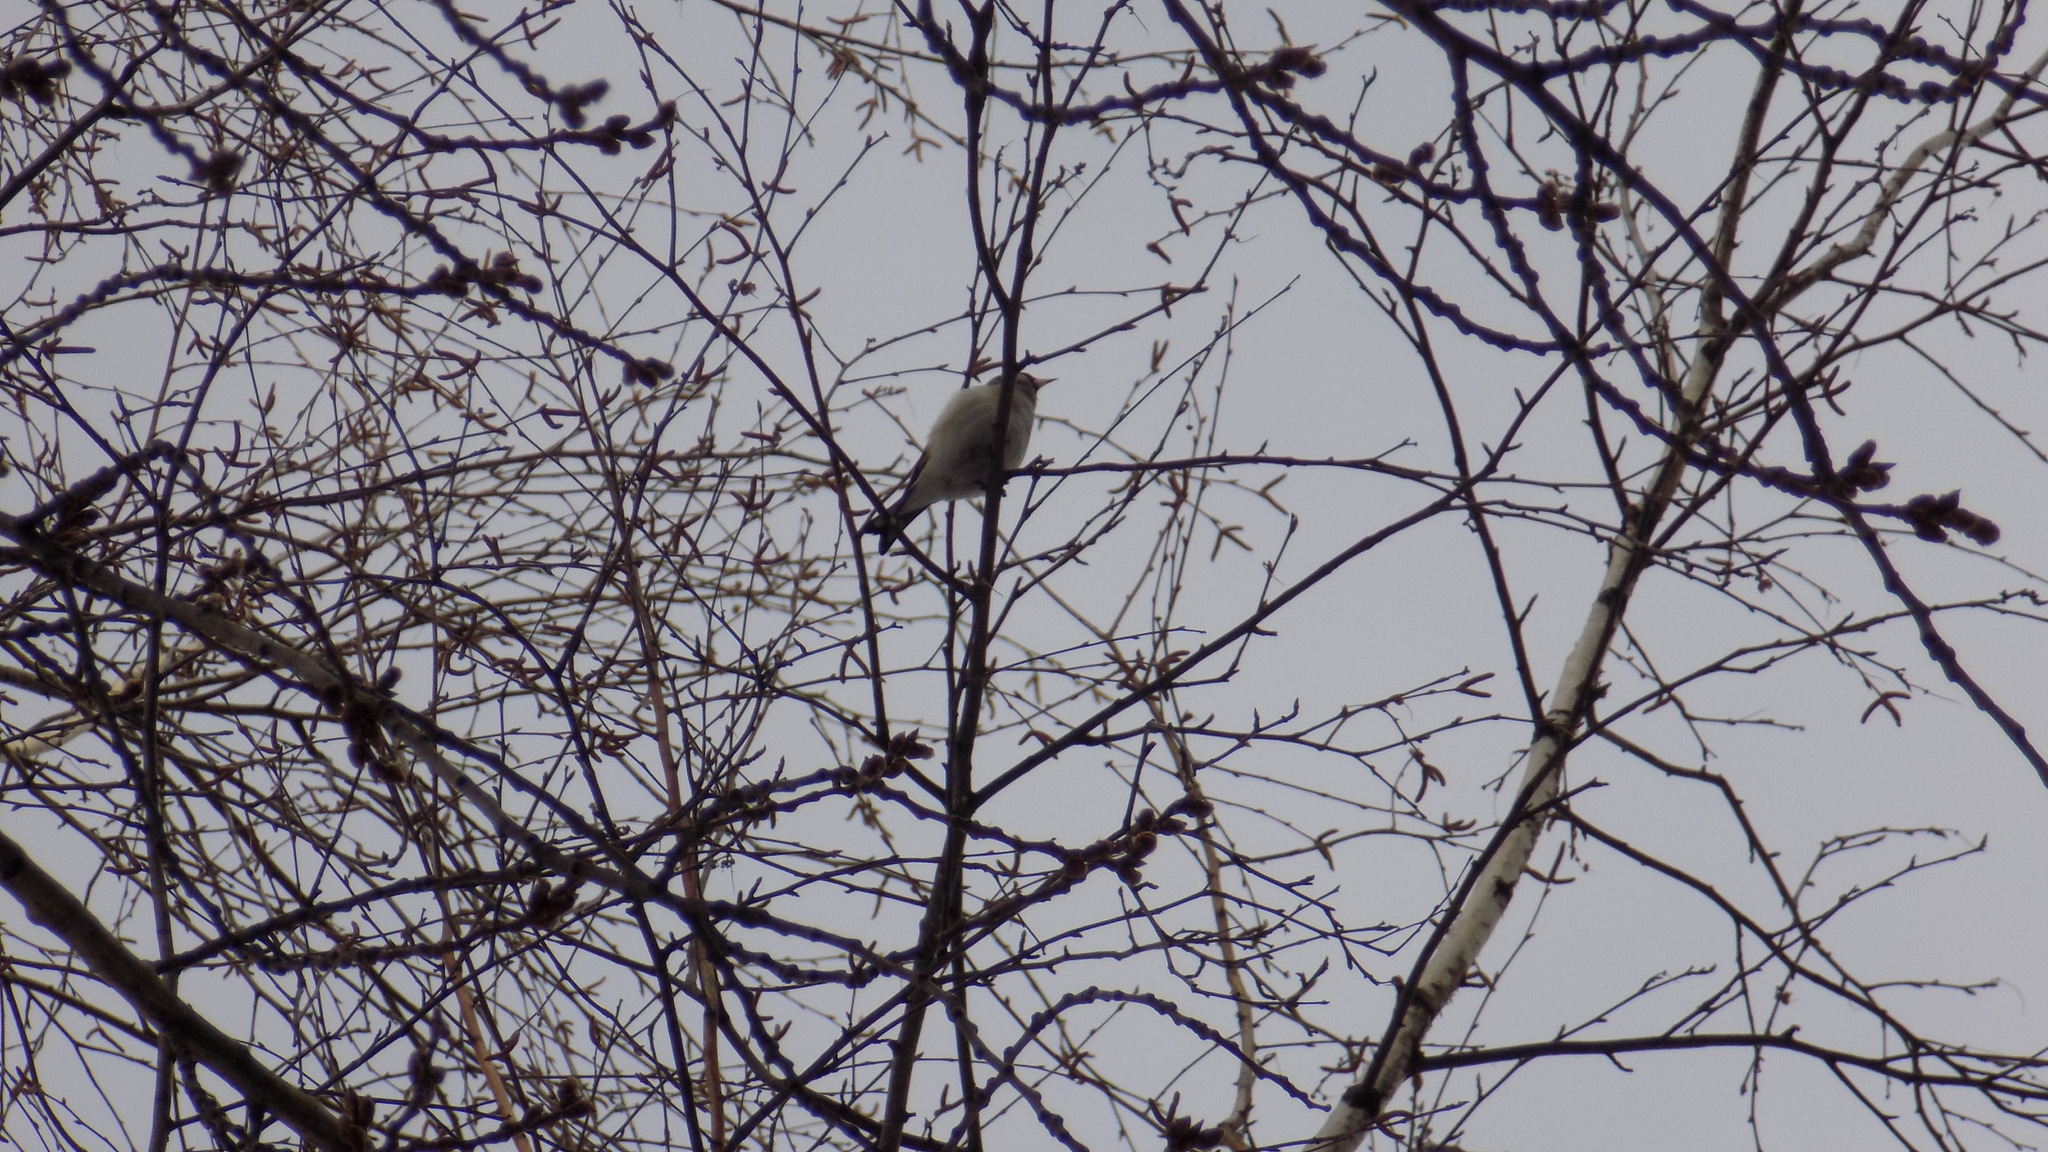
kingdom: Animalia
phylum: Chordata
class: Aves
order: Passeriformes
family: Fringillidae
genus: Carduelis
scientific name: Carduelis carduelis
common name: European goldfinch
